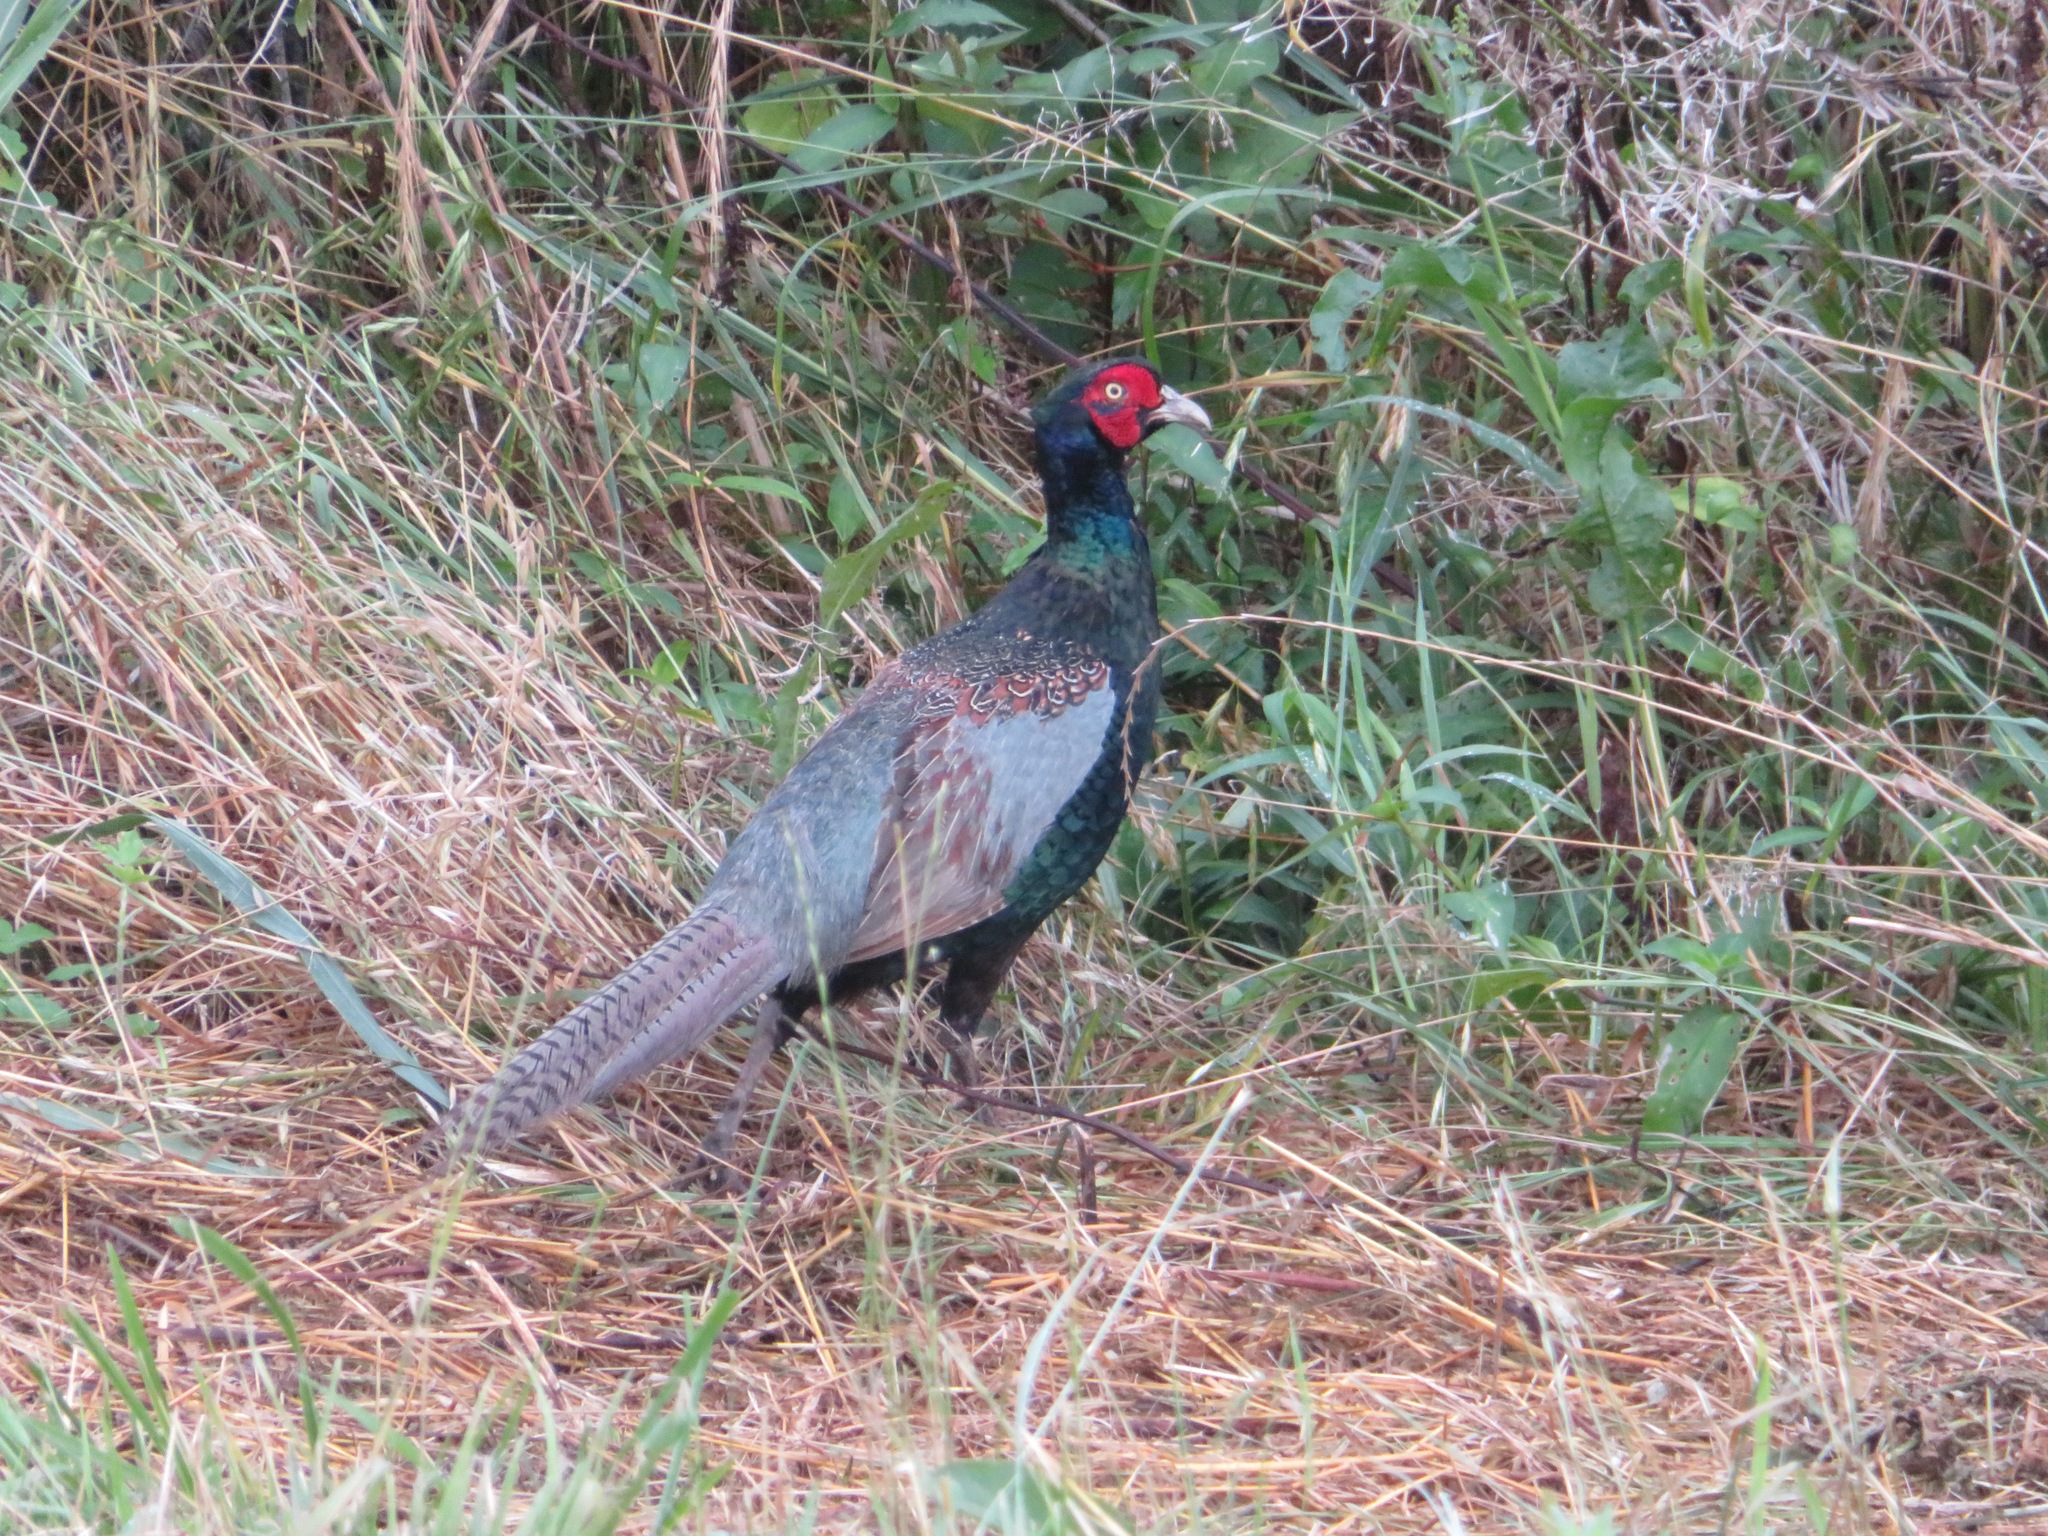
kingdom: Animalia
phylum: Chordata
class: Aves
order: Galliformes
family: Phasianidae
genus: Phasianus
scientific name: Phasianus versicolor
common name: Green pheasant
